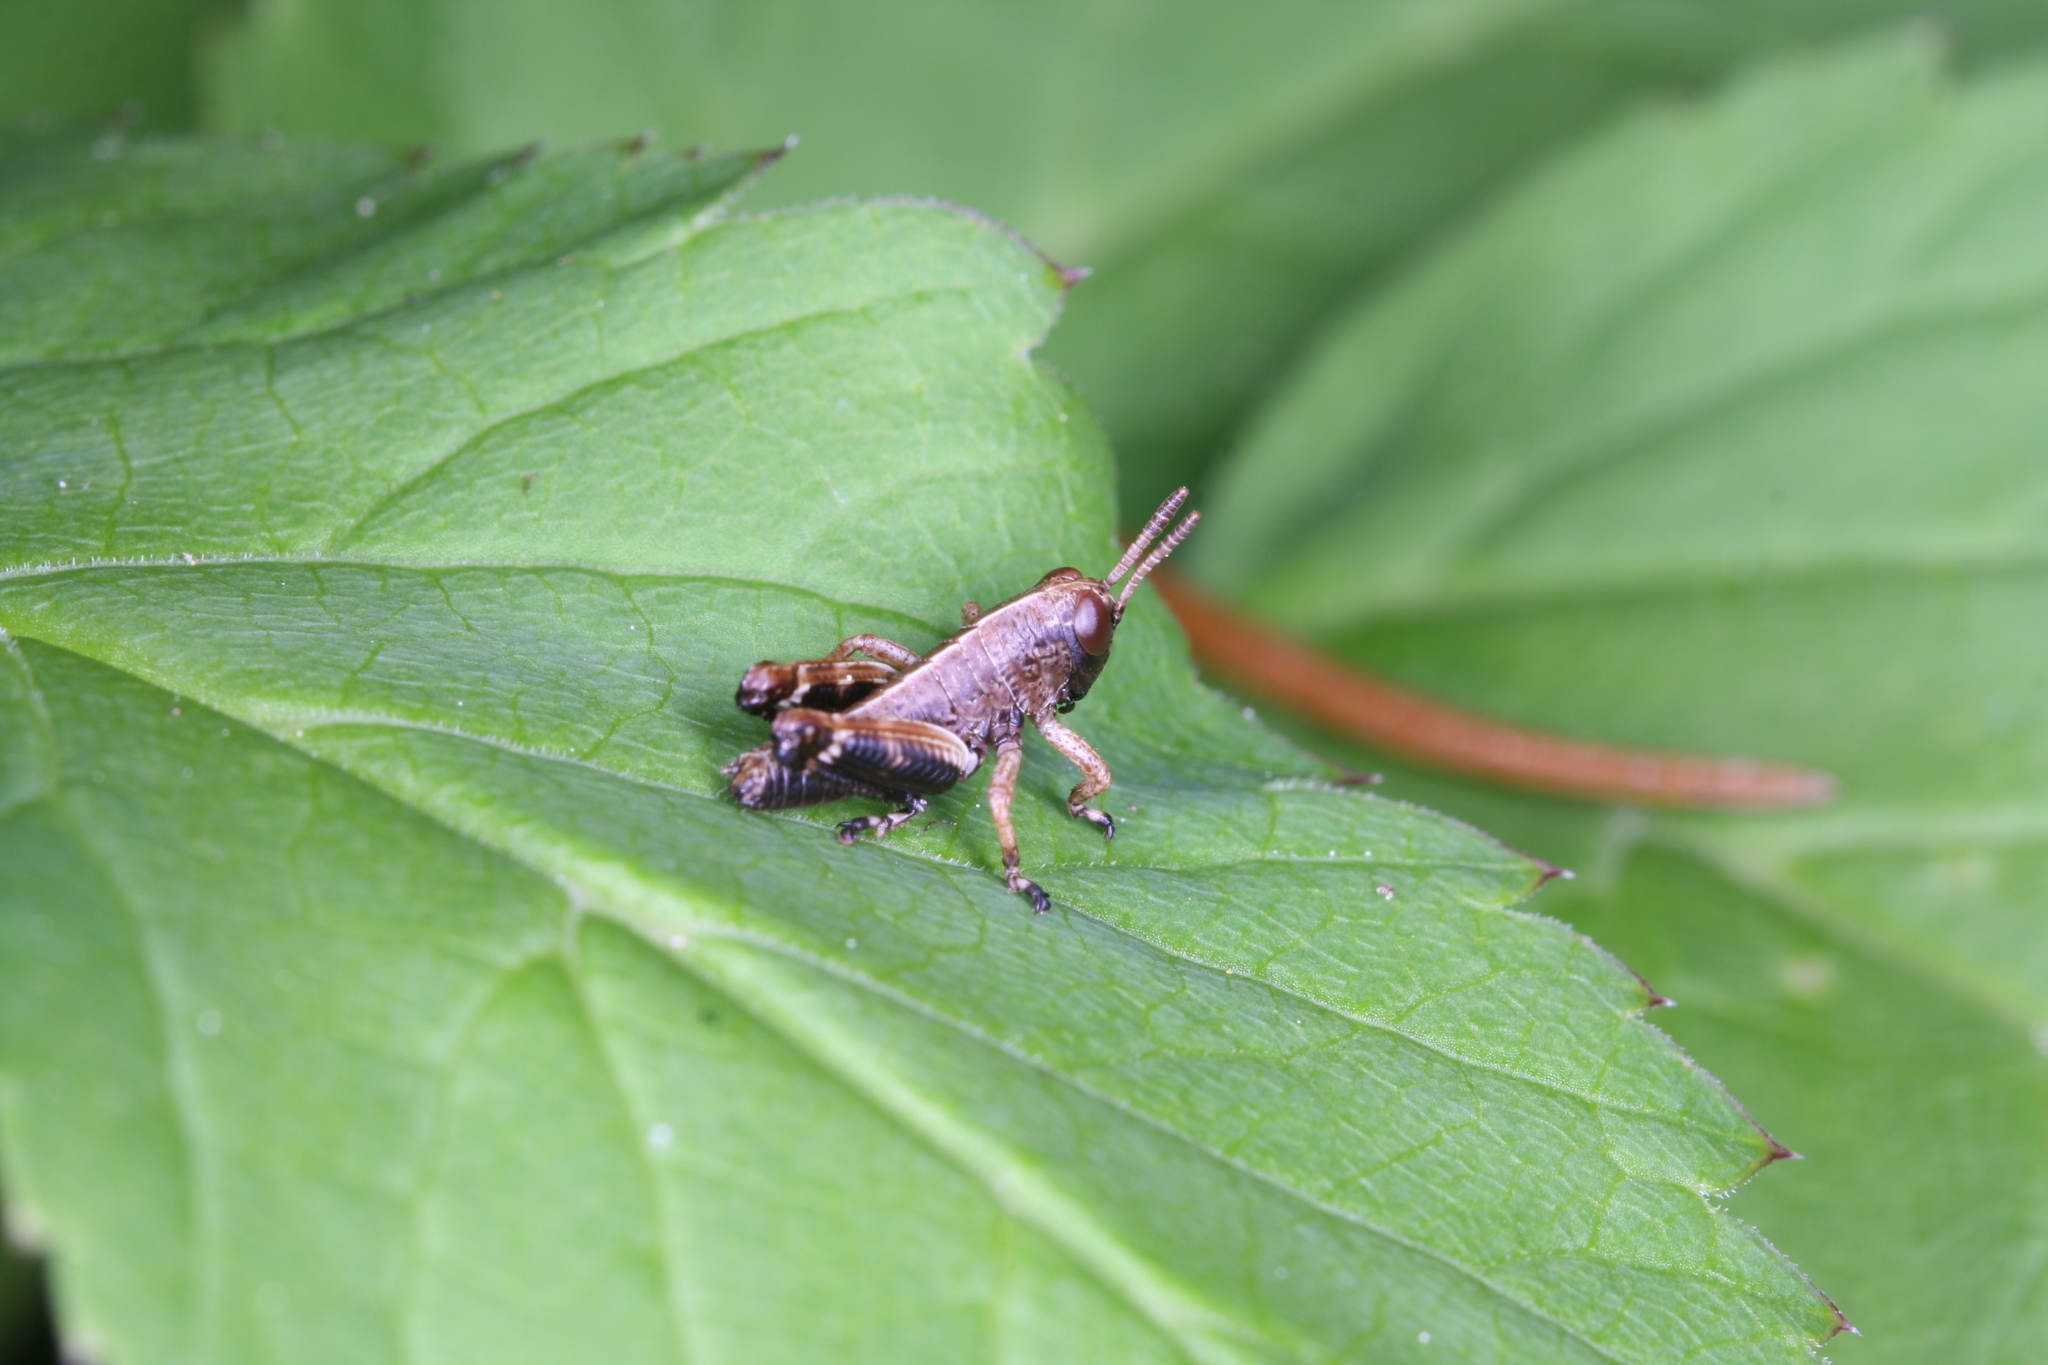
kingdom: Animalia
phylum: Arthropoda
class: Insecta
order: Orthoptera
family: Acrididae
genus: Miramella
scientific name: Miramella alpina
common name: Green mountain grasshopper
